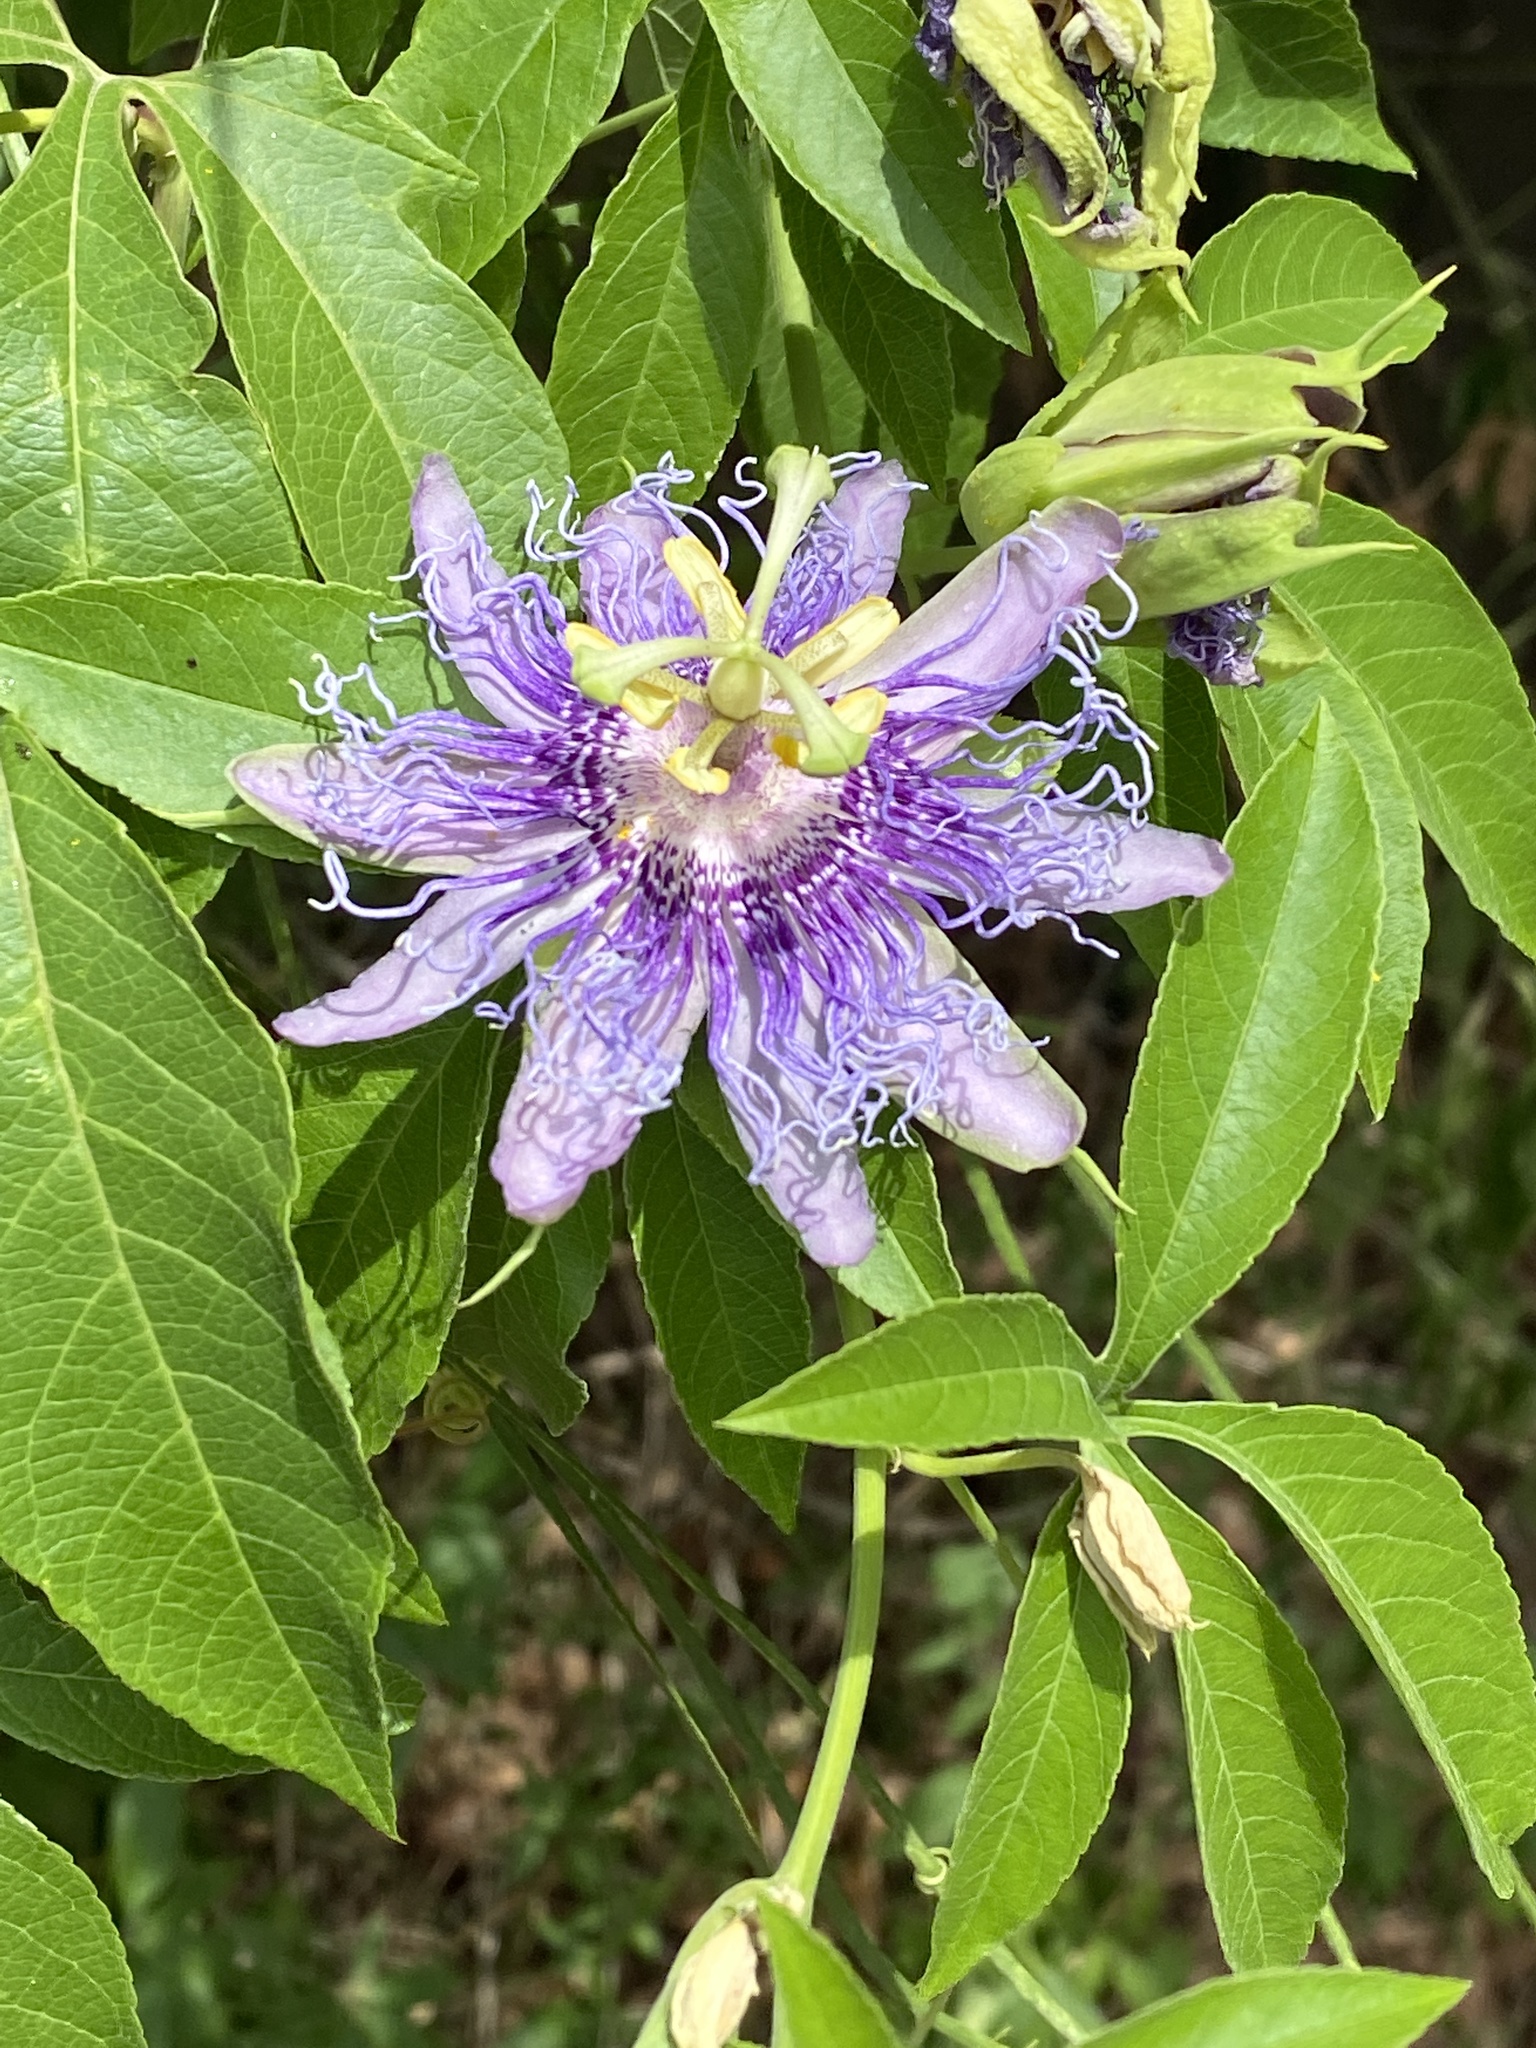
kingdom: Plantae
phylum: Tracheophyta
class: Magnoliopsida
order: Malpighiales
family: Passifloraceae
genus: Passiflora
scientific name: Passiflora
